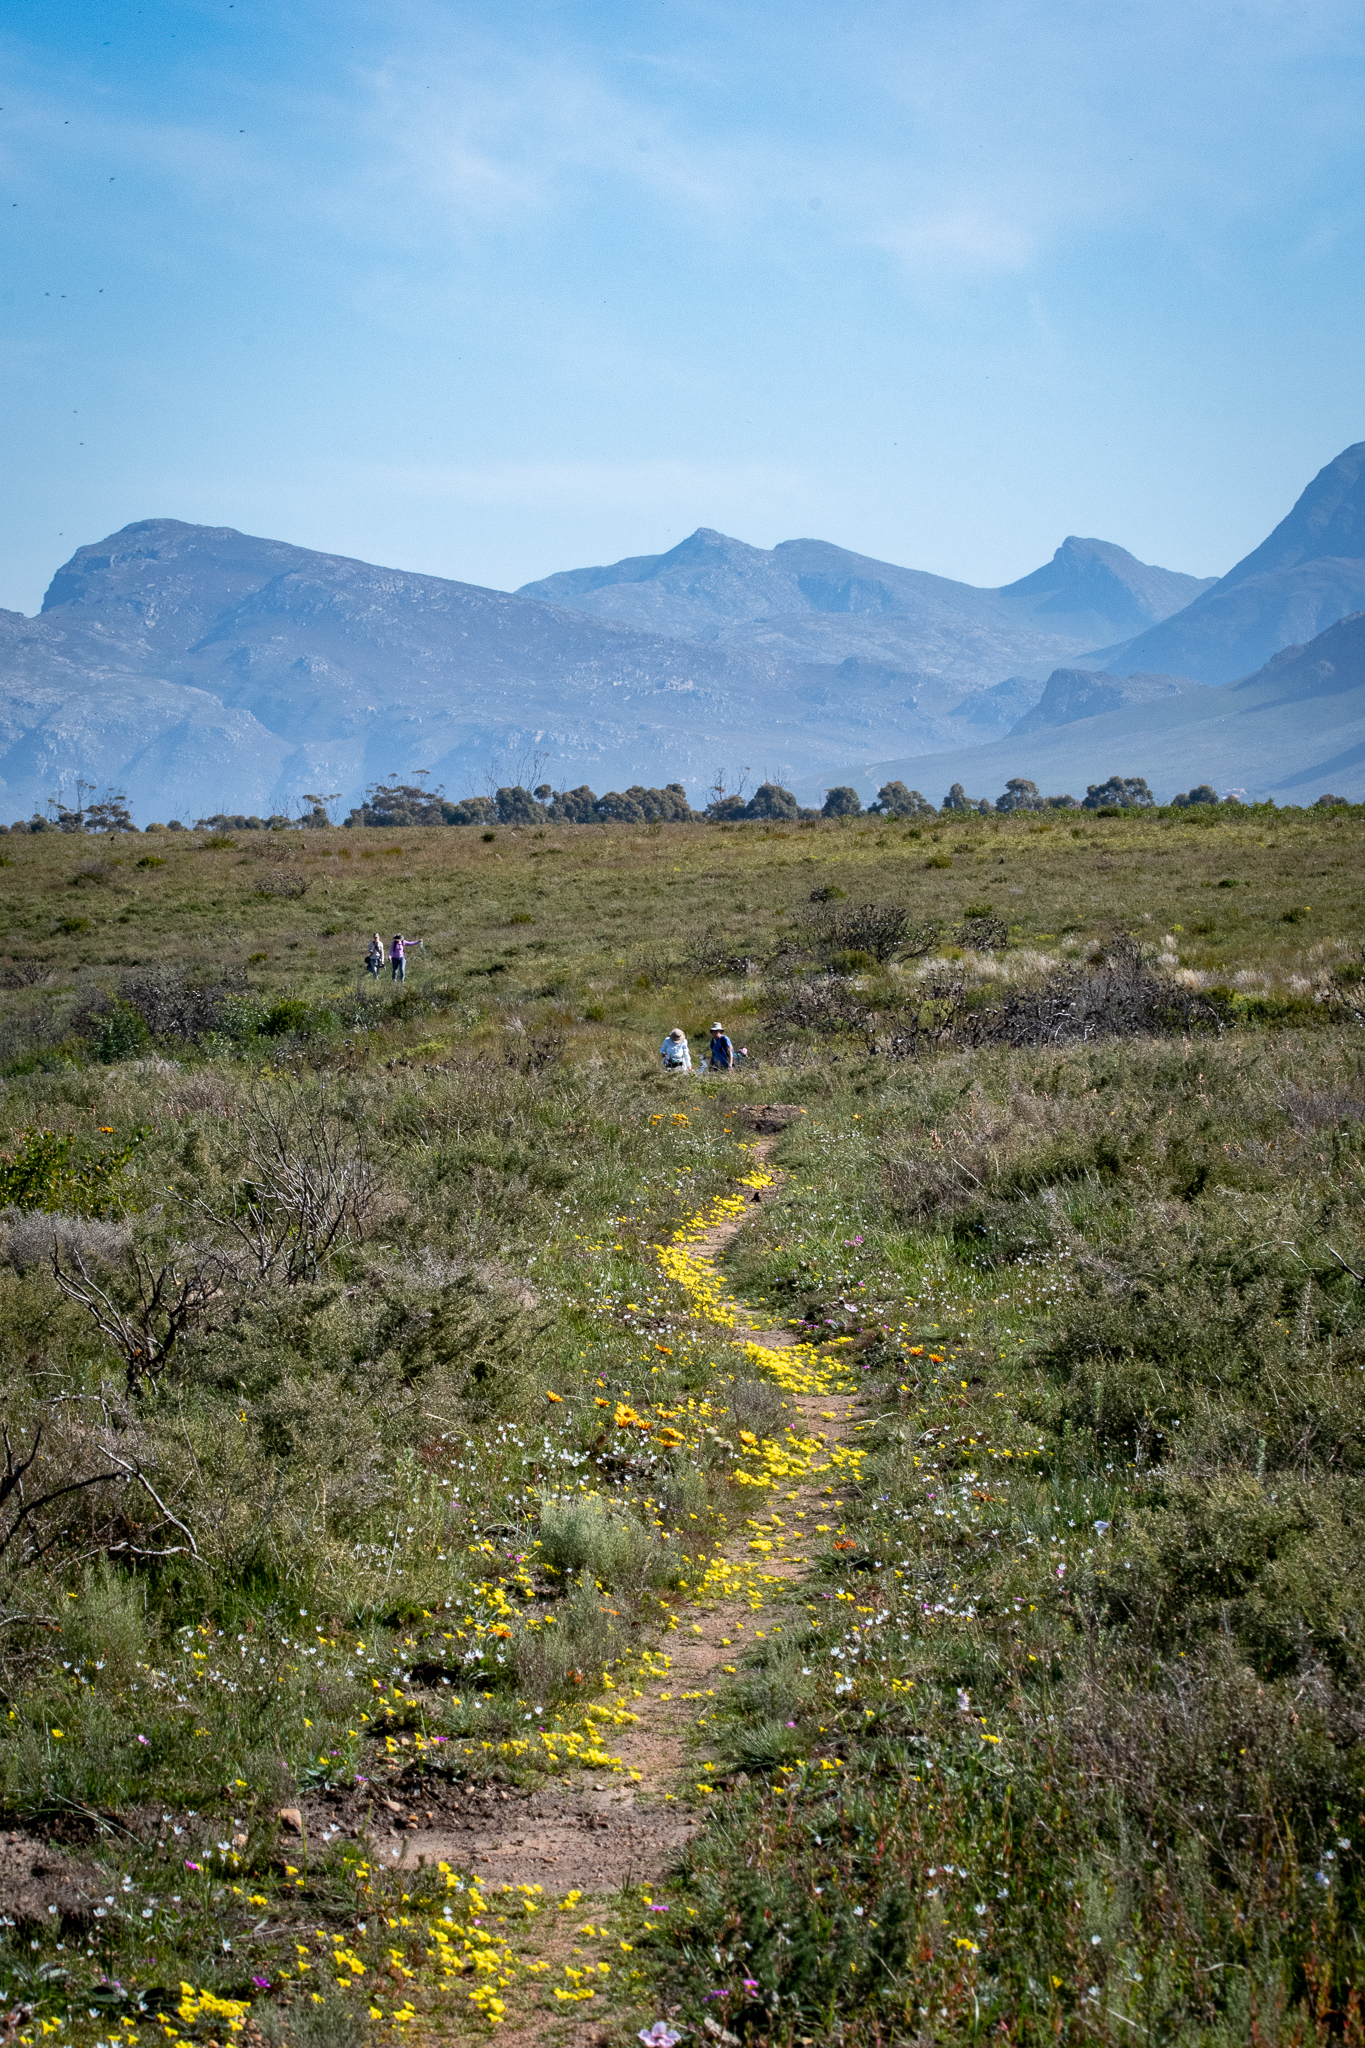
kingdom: Plantae
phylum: Tracheophyta
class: Liliopsida
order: Asparagales
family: Iridaceae
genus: Moraea
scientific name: Moraea fugacissima
